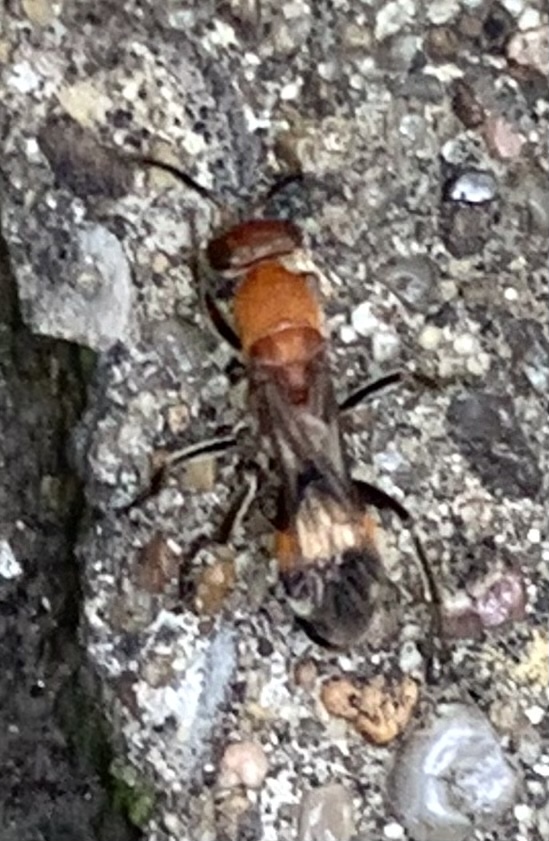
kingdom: Animalia
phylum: Arthropoda
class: Insecta
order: Hymenoptera
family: Pompilidae
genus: Psorthaspis
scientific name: Psorthaspis legata
